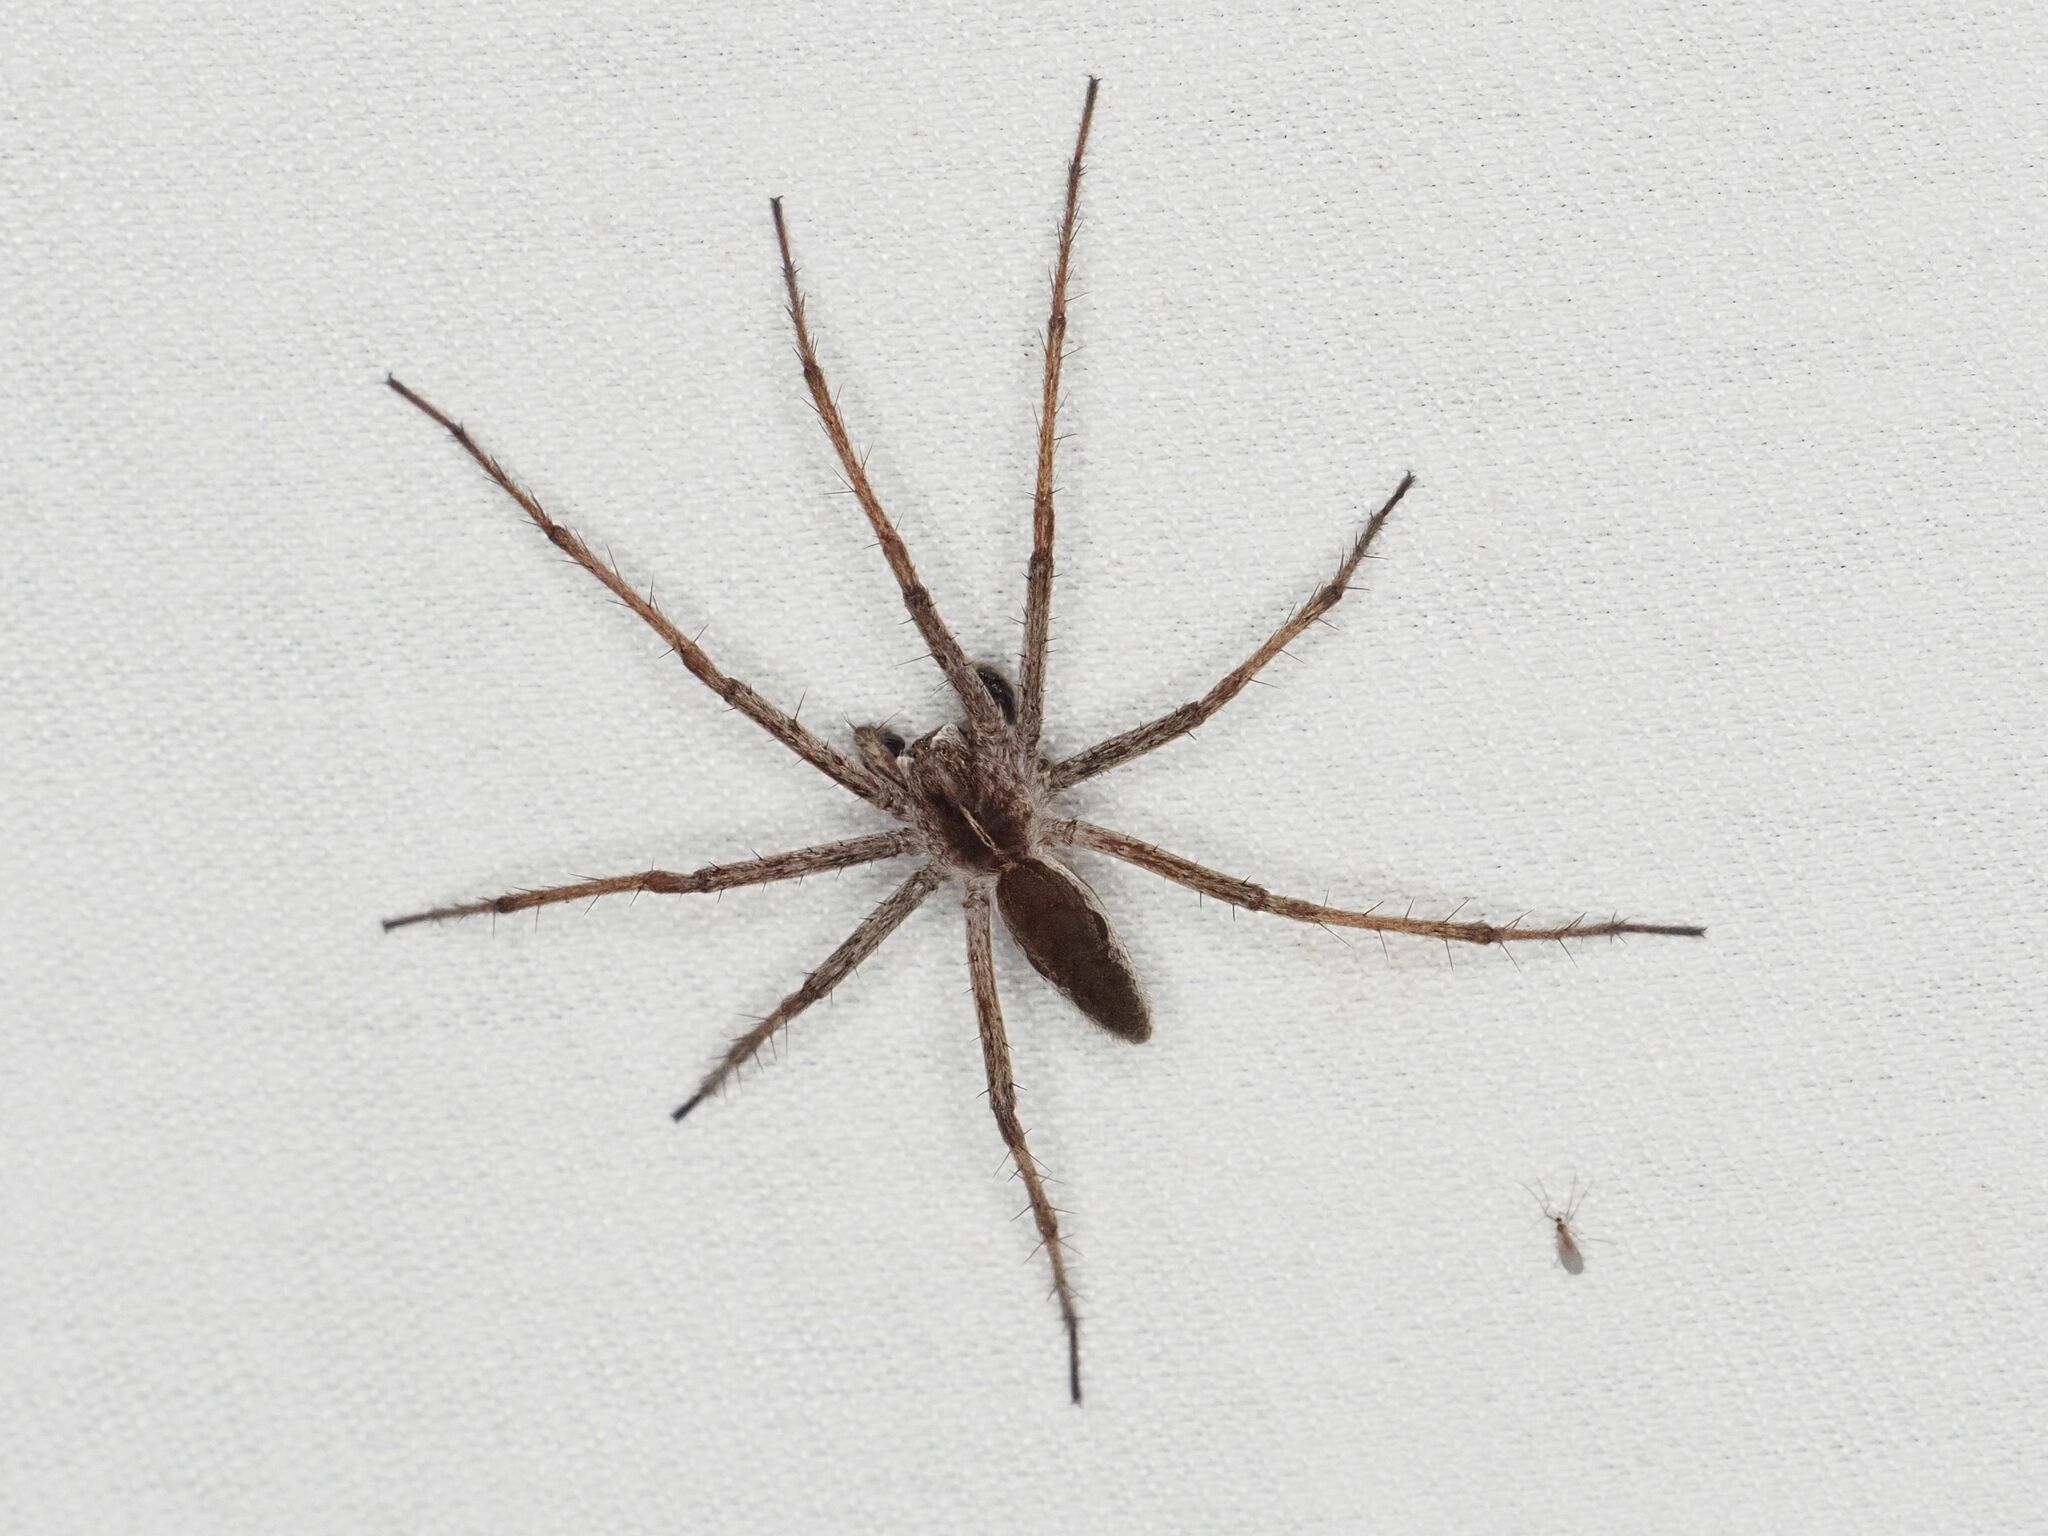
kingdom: Animalia
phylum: Arthropoda
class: Arachnida
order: Araneae
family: Pisauridae
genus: Pisaura
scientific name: Pisaura mirabilis
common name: Tent spider
